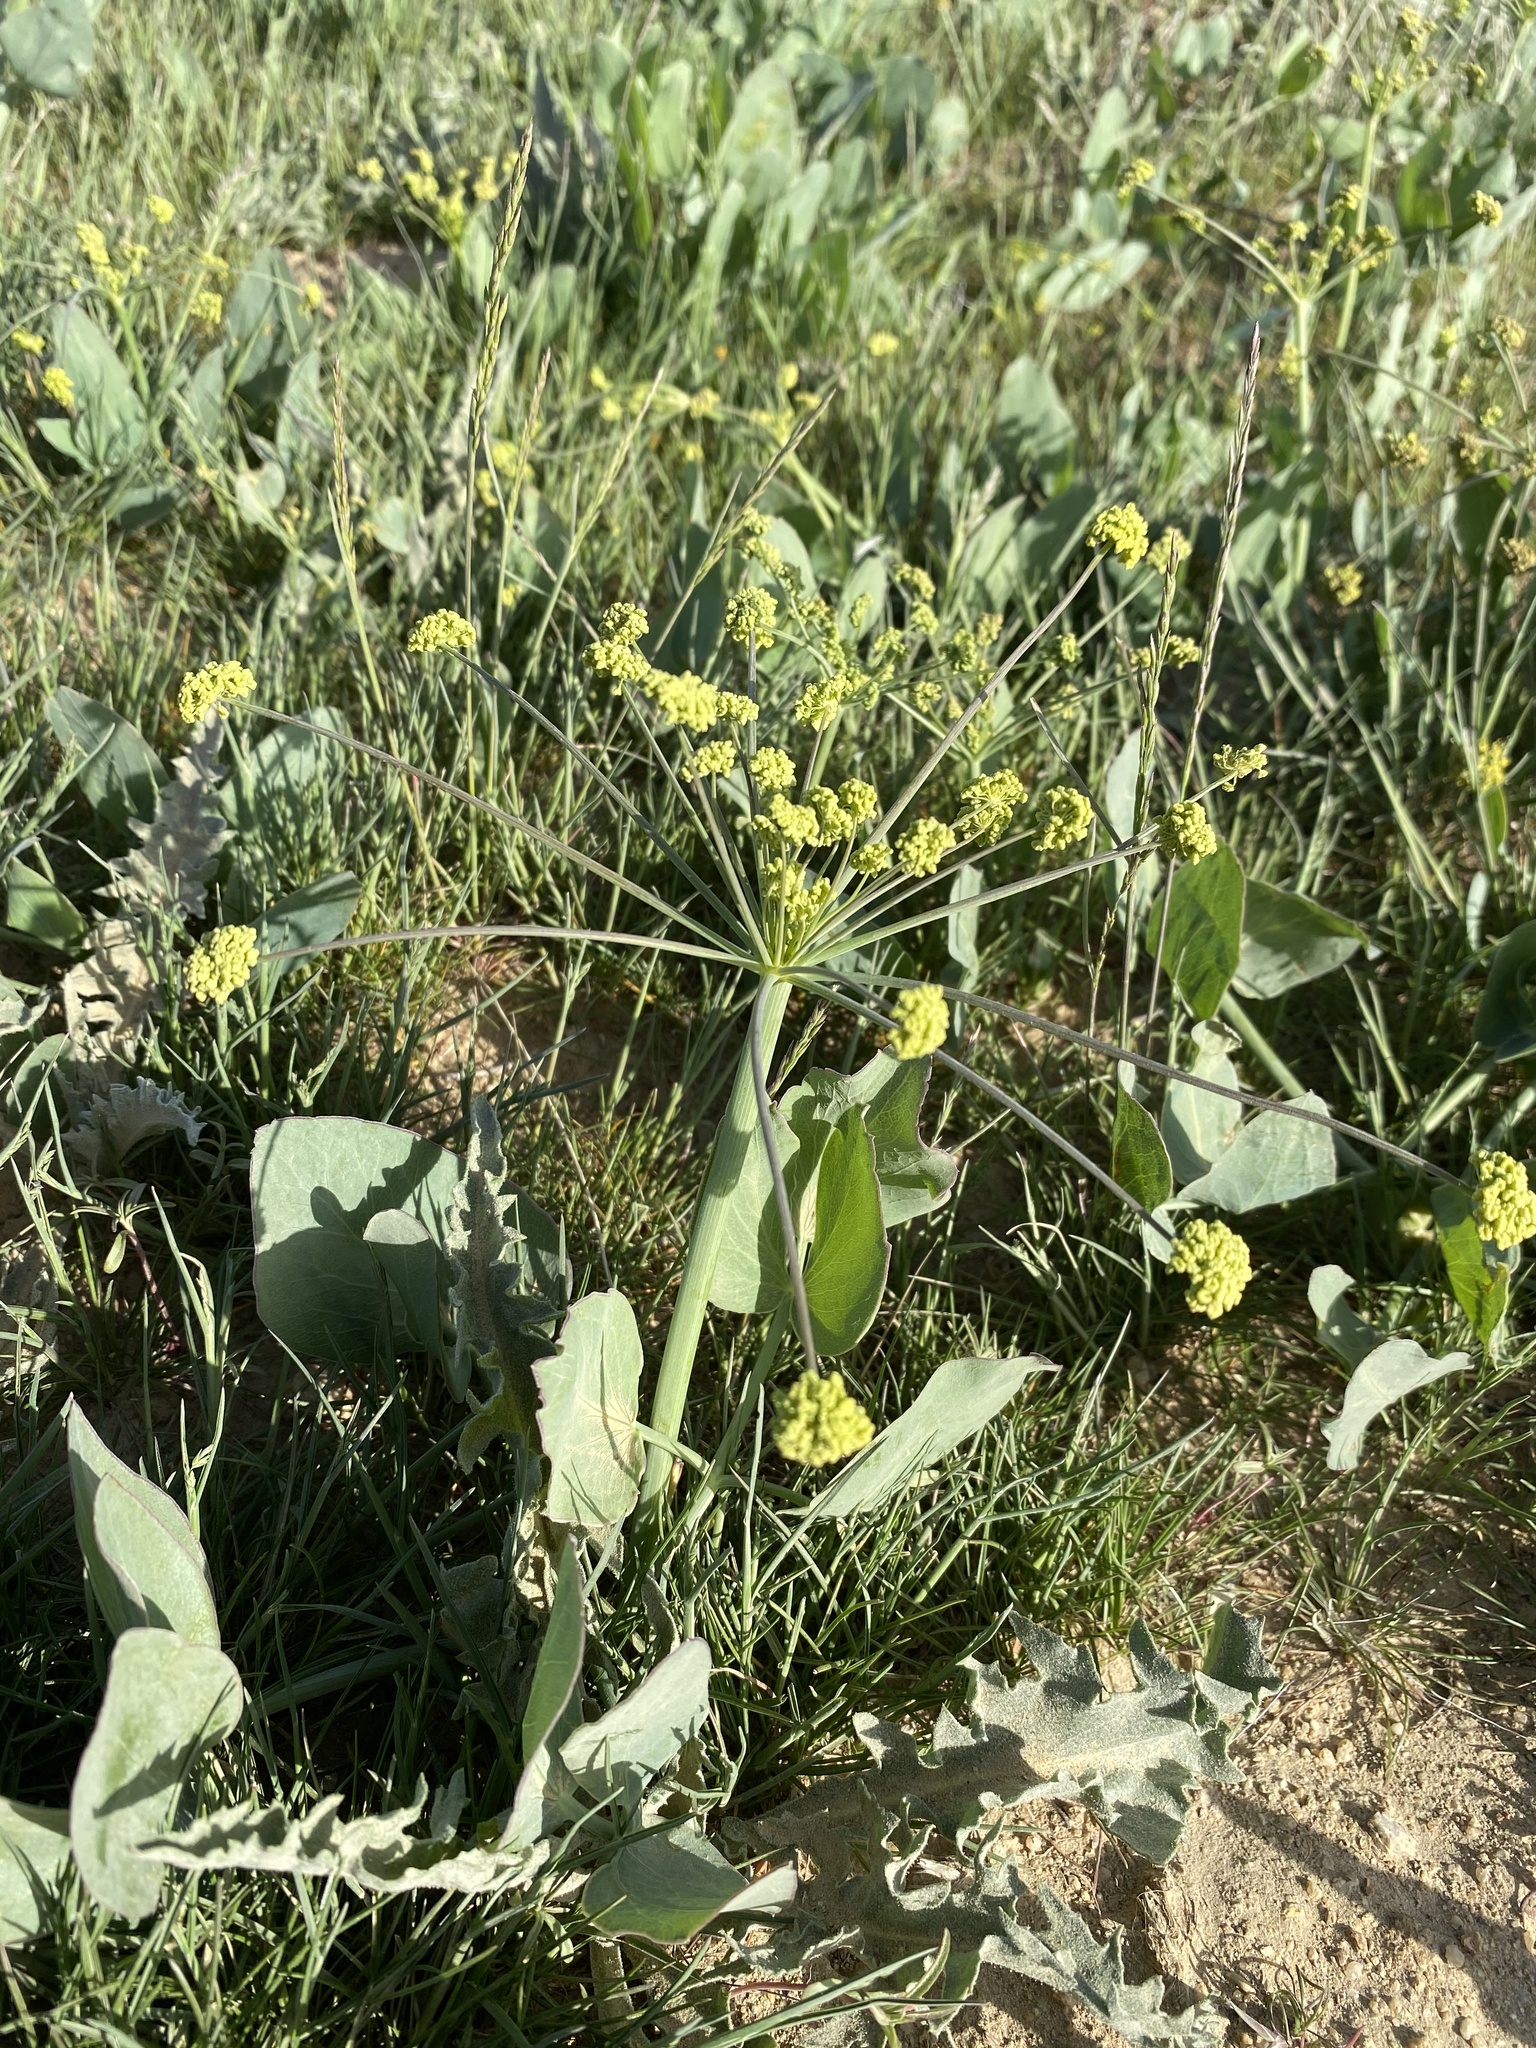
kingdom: Plantae
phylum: Tracheophyta
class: Magnoliopsida
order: Apiales
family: Apiaceae
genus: Lomatium
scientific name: Lomatium nudicaule
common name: Pestle lomatium
